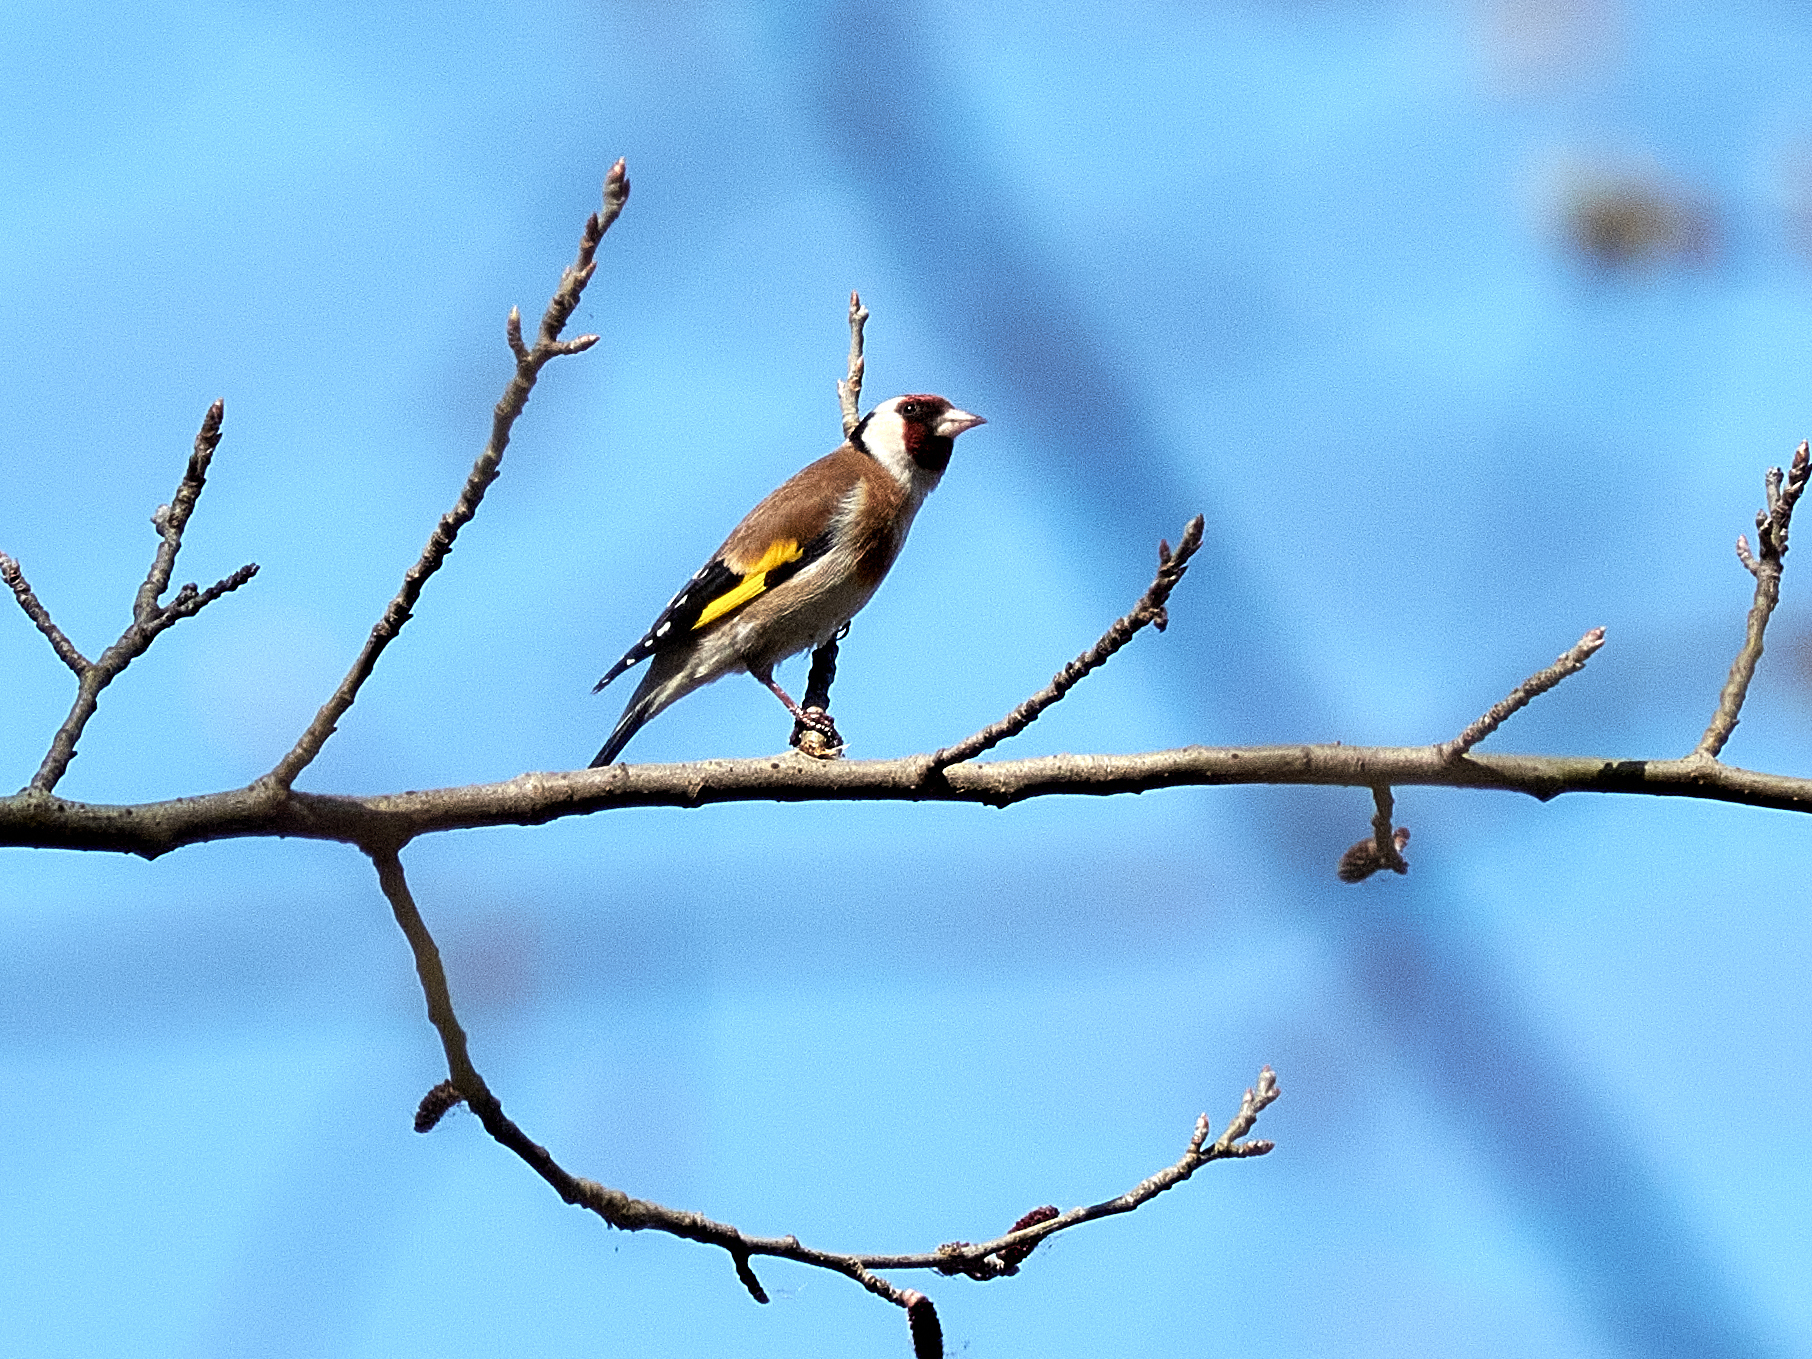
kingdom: Animalia
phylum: Chordata
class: Aves
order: Passeriformes
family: Fringillidae
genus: Carduelis
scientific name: Carduelis carduelis
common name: European goldfinch
